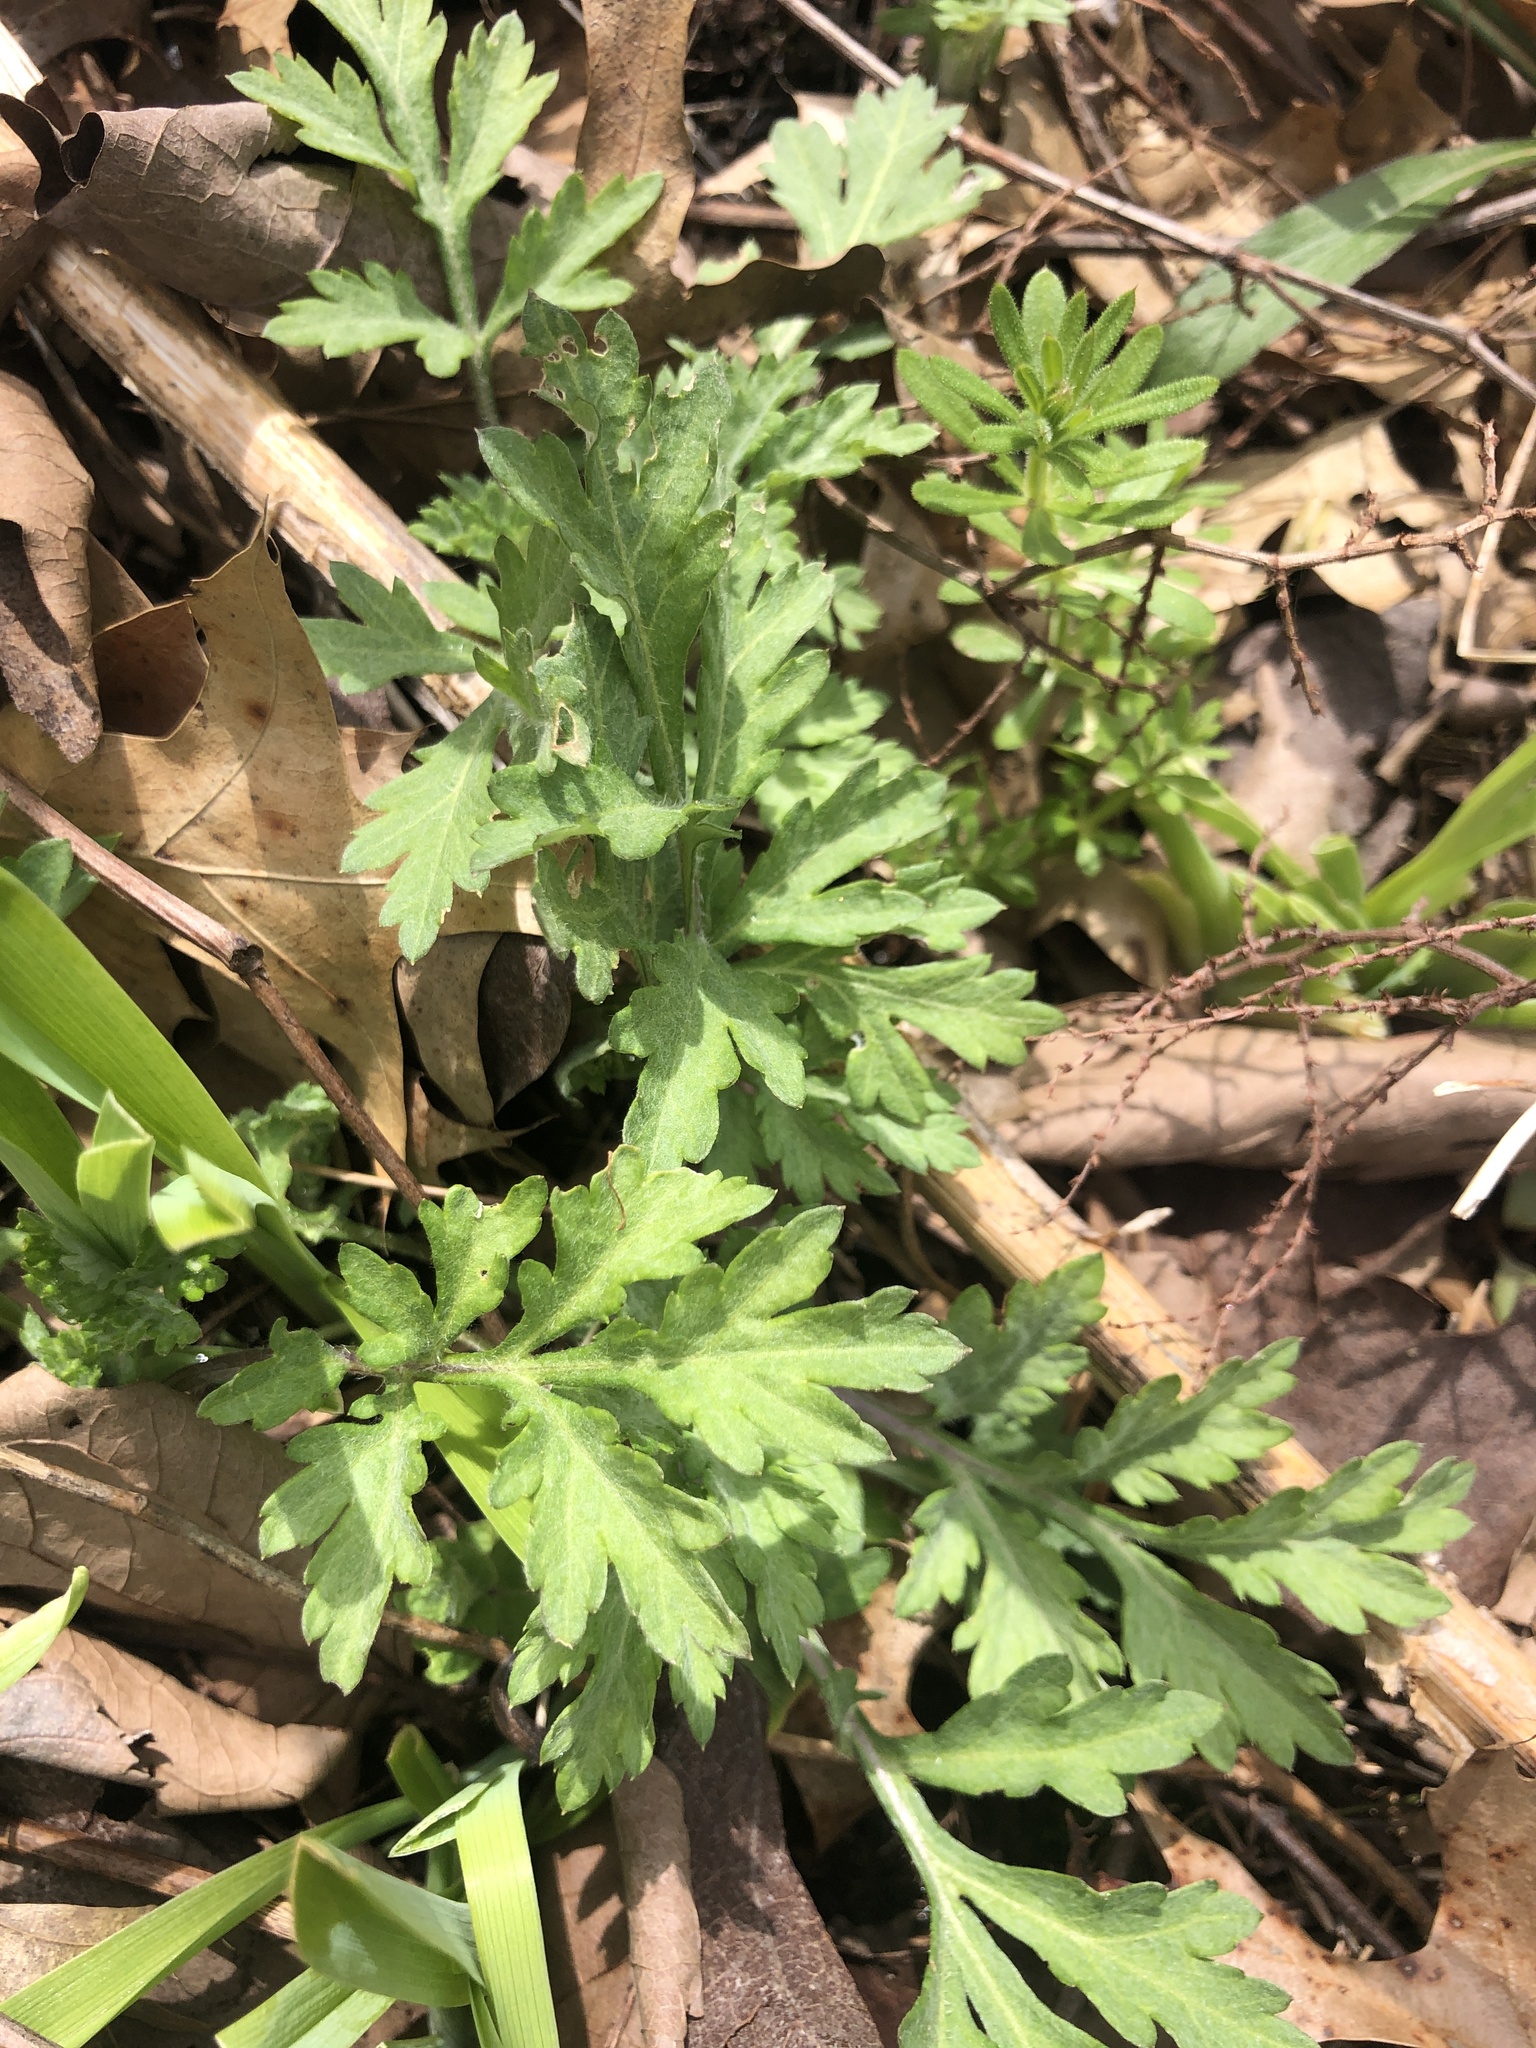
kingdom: Plantae
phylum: Tracheophyta
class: Magnoliopsida
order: Asterales
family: Asteraceae
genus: Artemisia
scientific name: Artemisia vulgaris
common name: Mugwort
